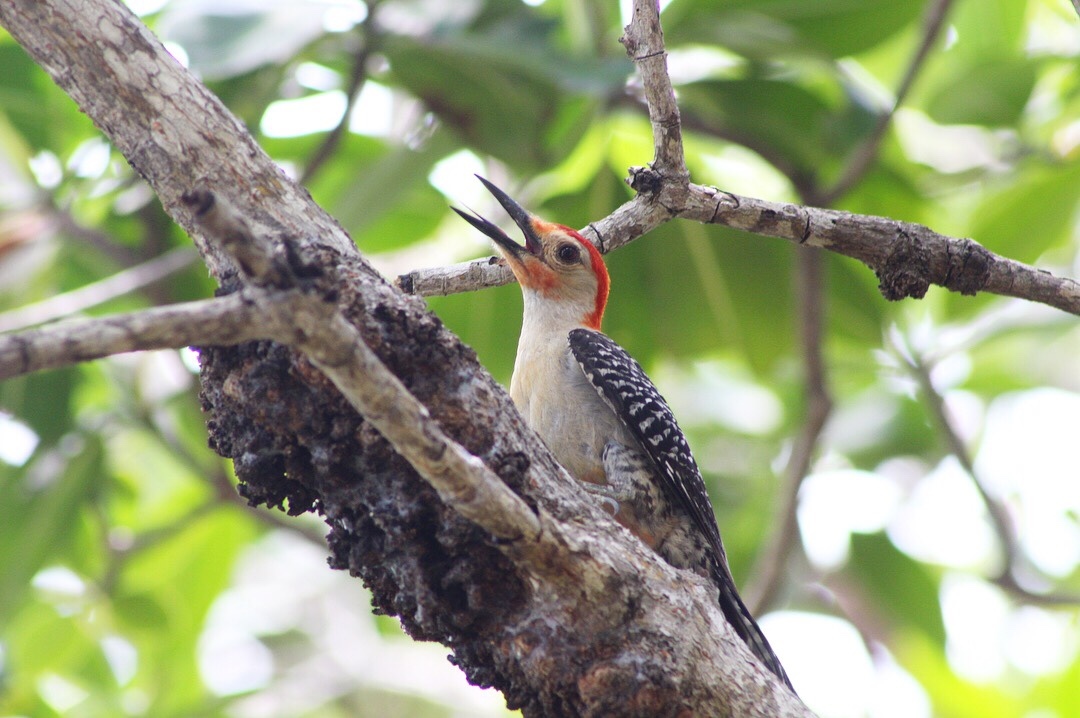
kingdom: Animalia
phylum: Chordata
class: Aves
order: Piciformes
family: Picidae
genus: Melanerpes
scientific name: Melanerpes carolinus
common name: Red-bellied woodpecker
